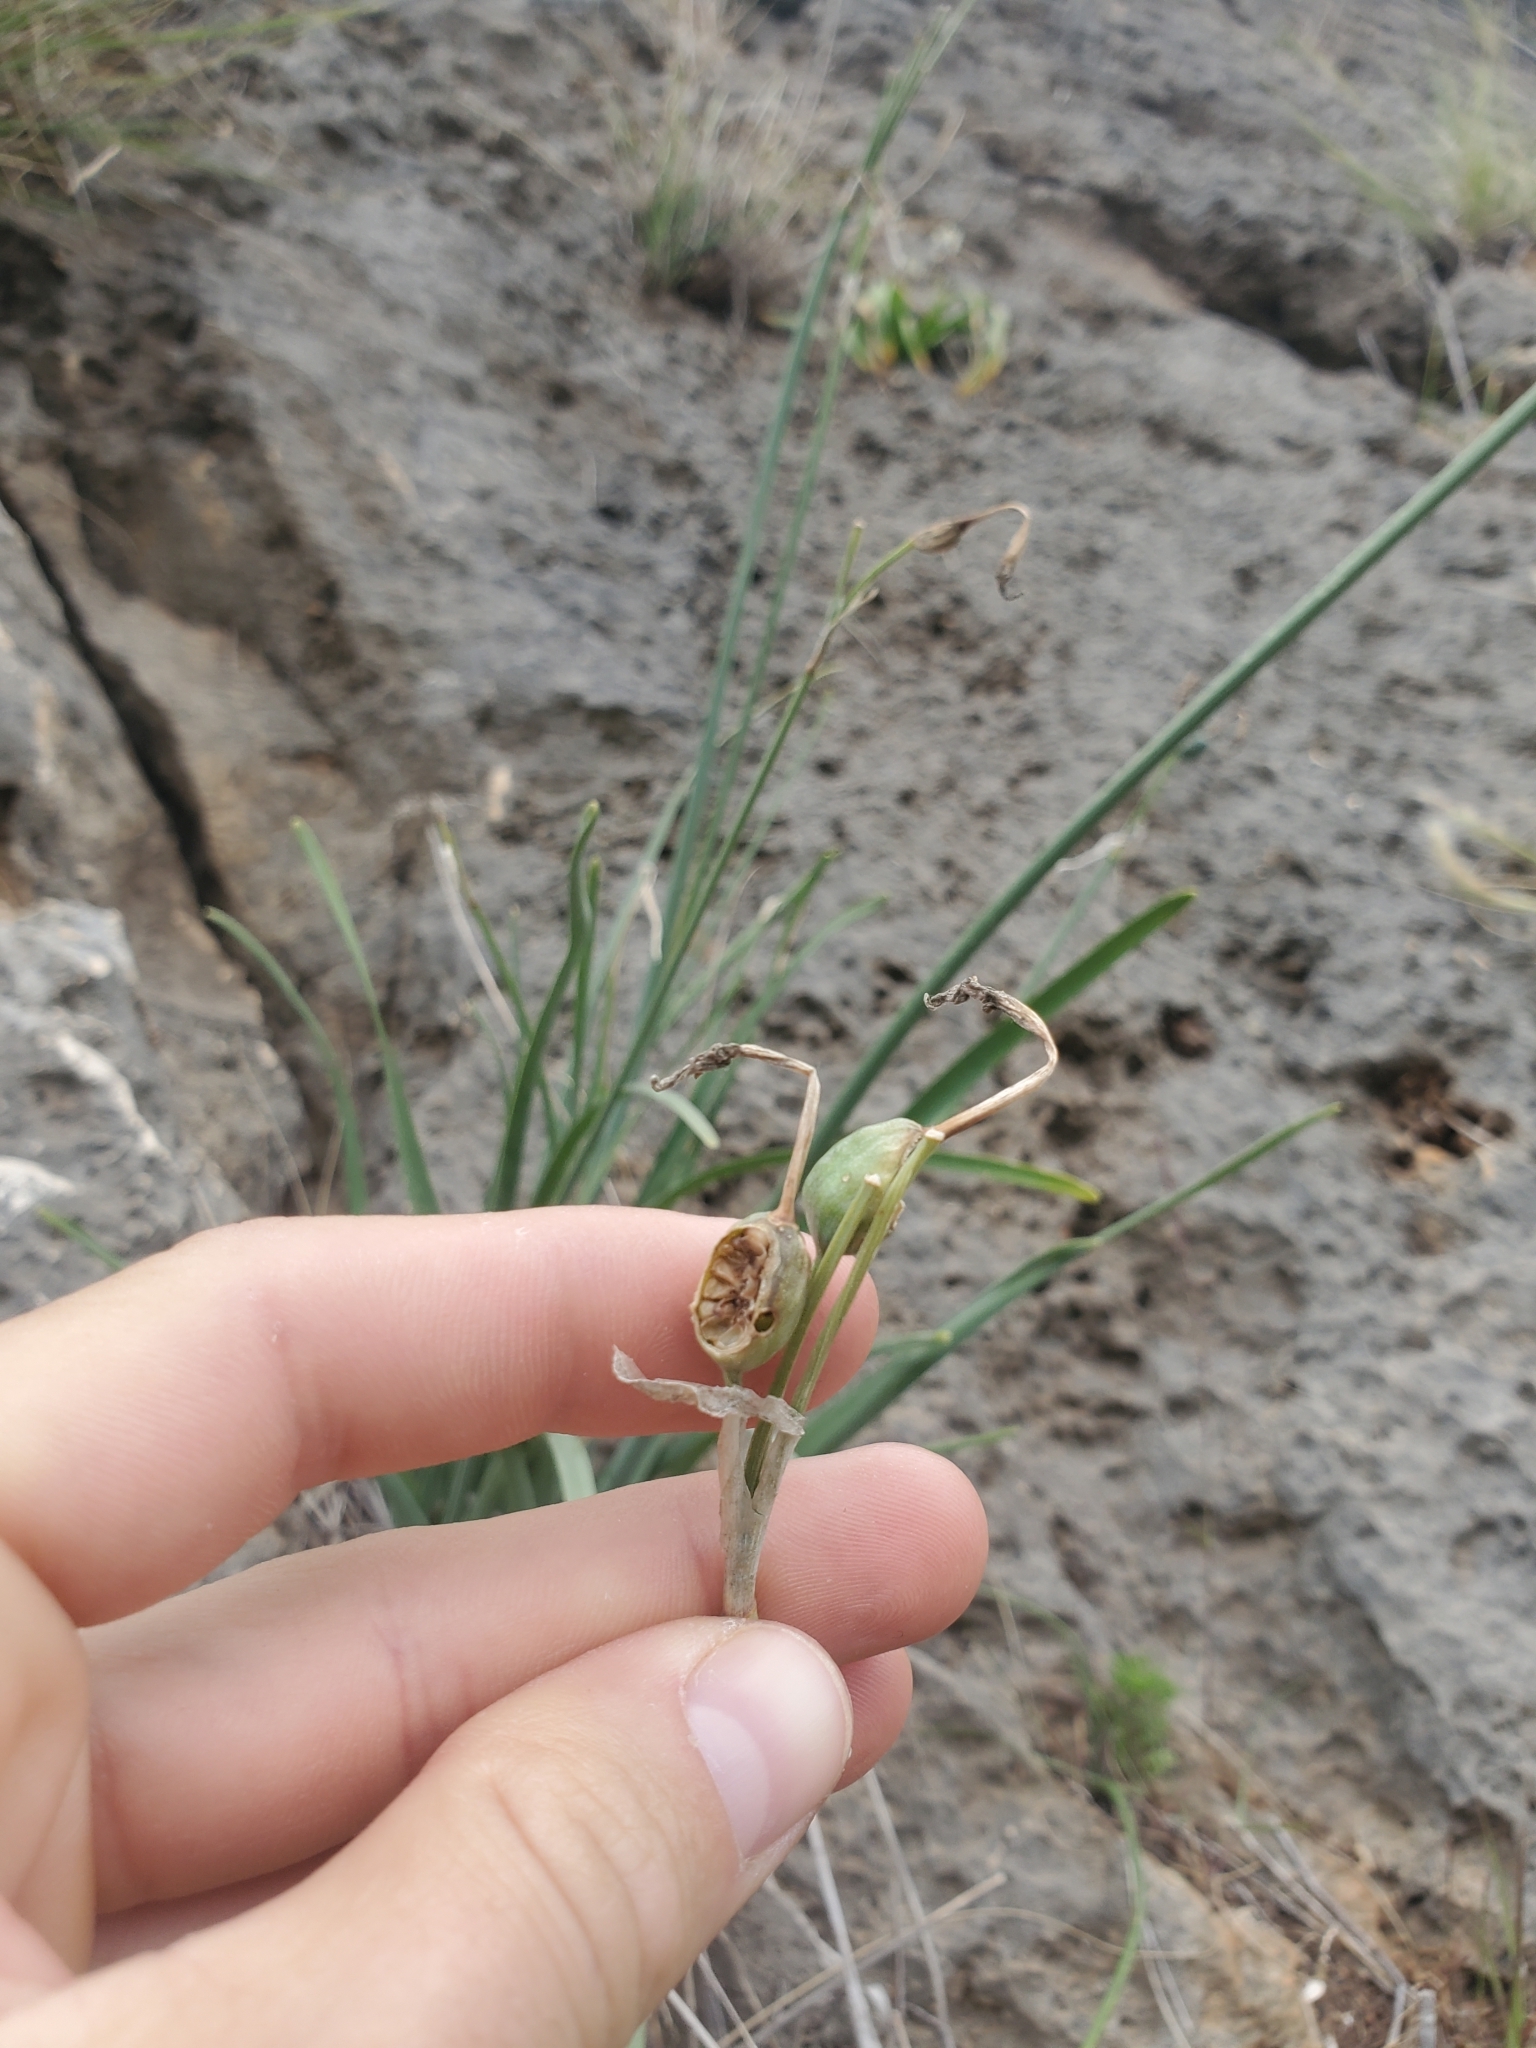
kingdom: Plantae
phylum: Tracheophyta
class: Liliopsida
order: Asparagales
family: Amaryllidaceae
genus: Narcissus
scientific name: Narcissus tazetta
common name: Bunch-flowered daffodil
